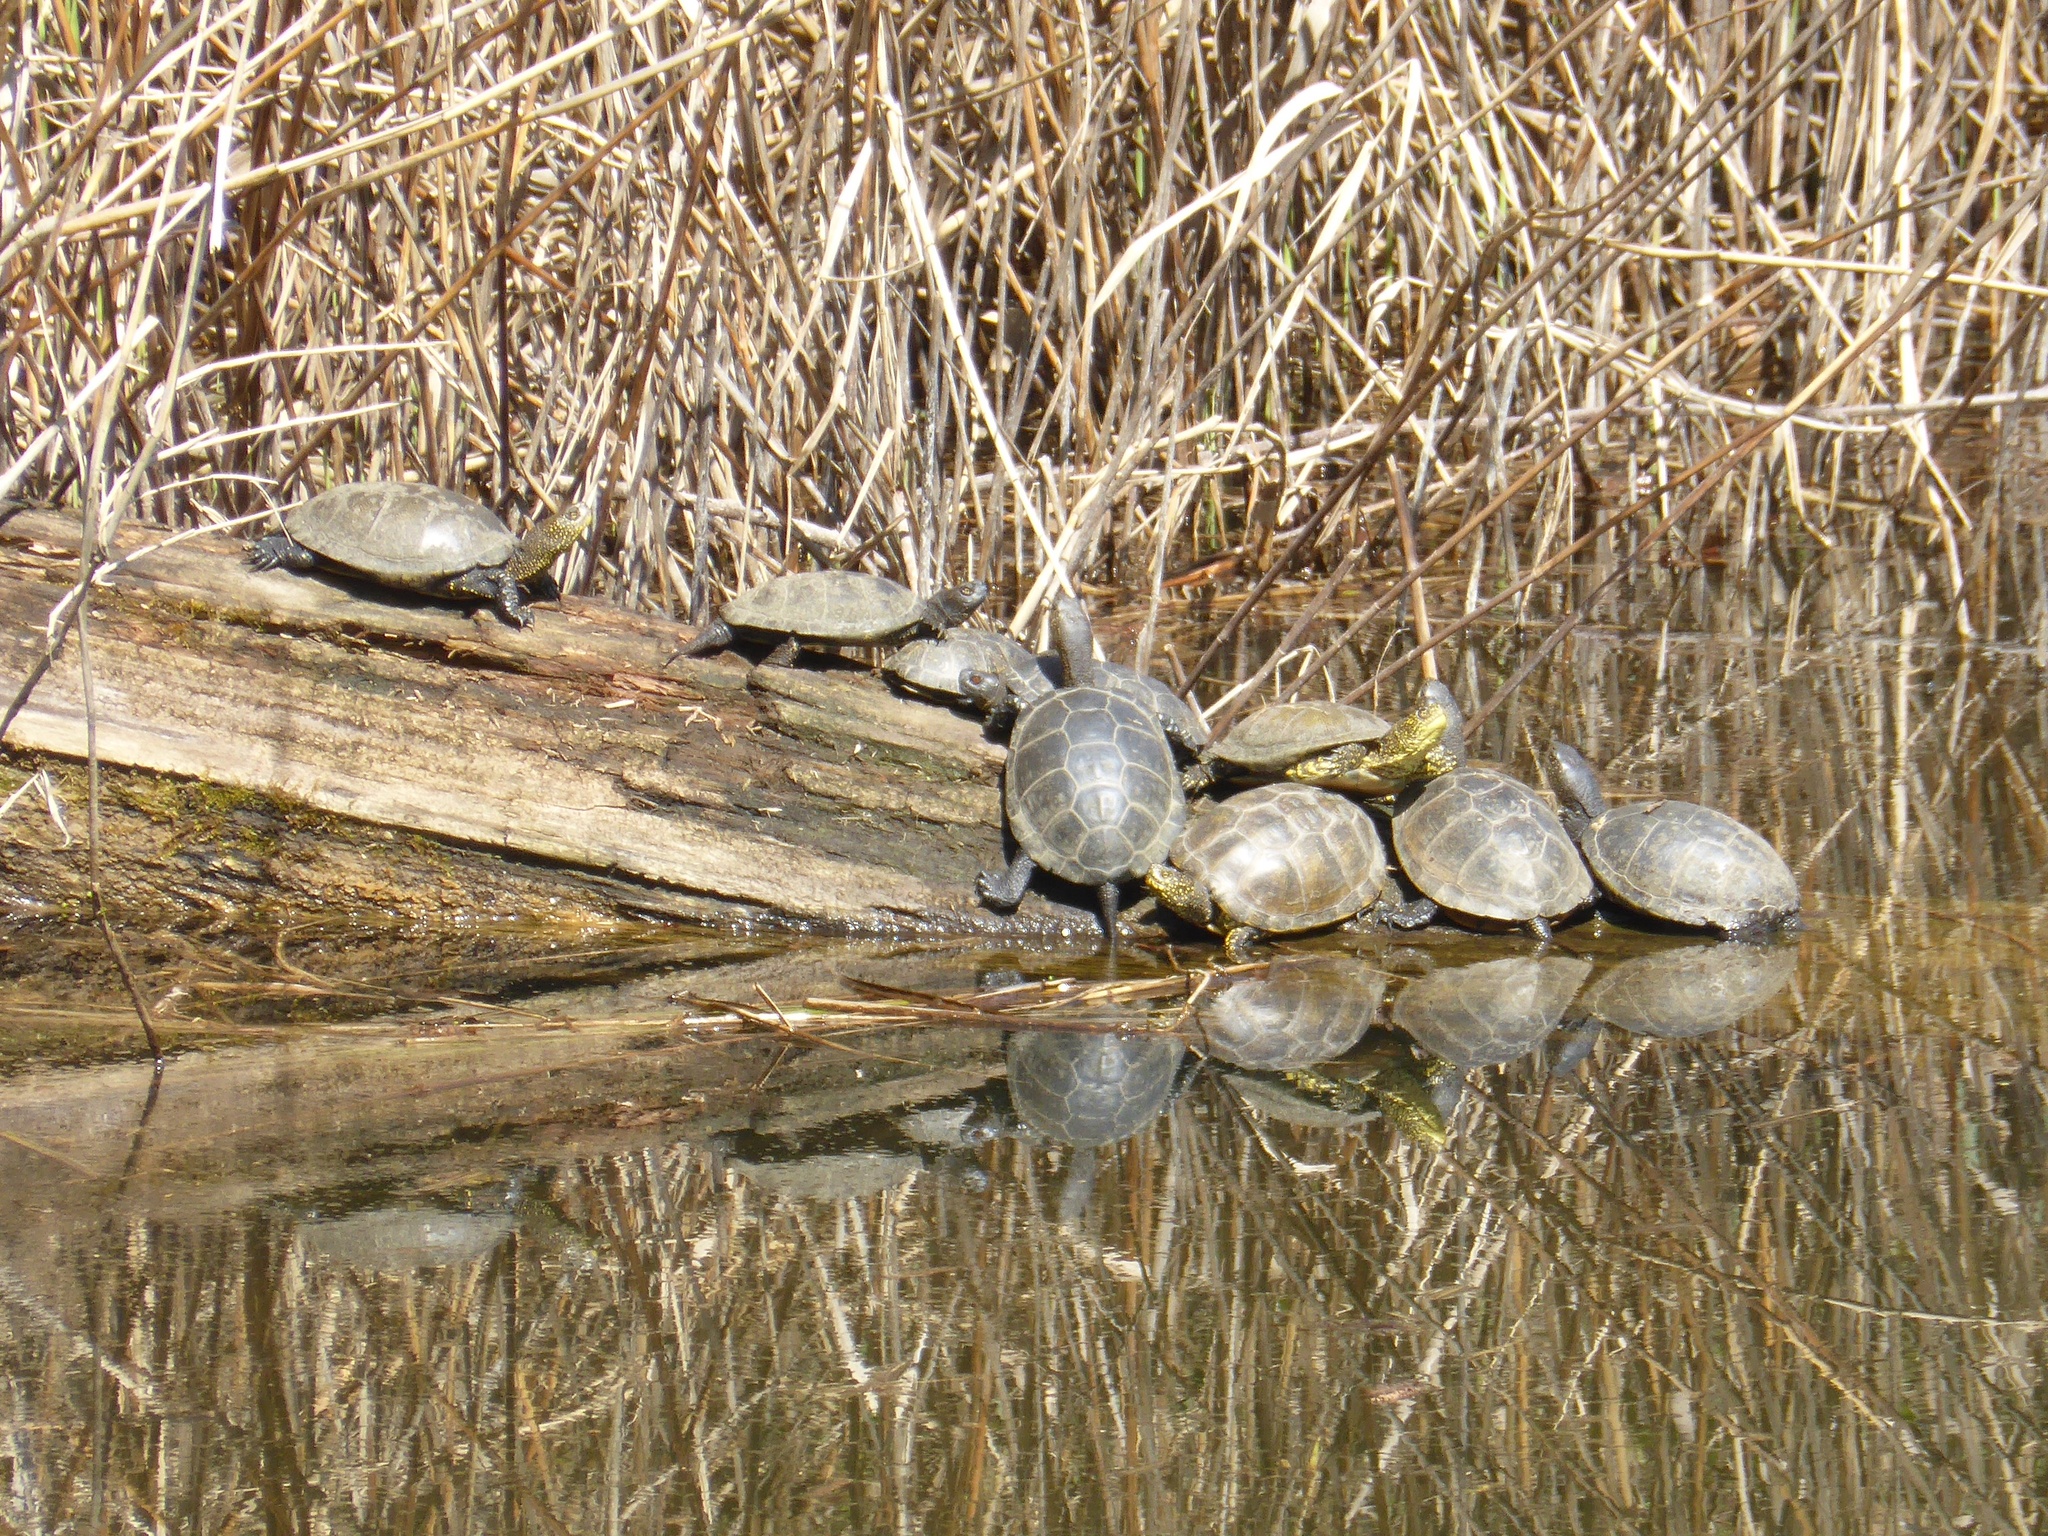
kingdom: Animalia
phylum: Chordata
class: Testudines
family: Emydidae
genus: Emys
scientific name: Emys orbicularis
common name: European pond turtle
